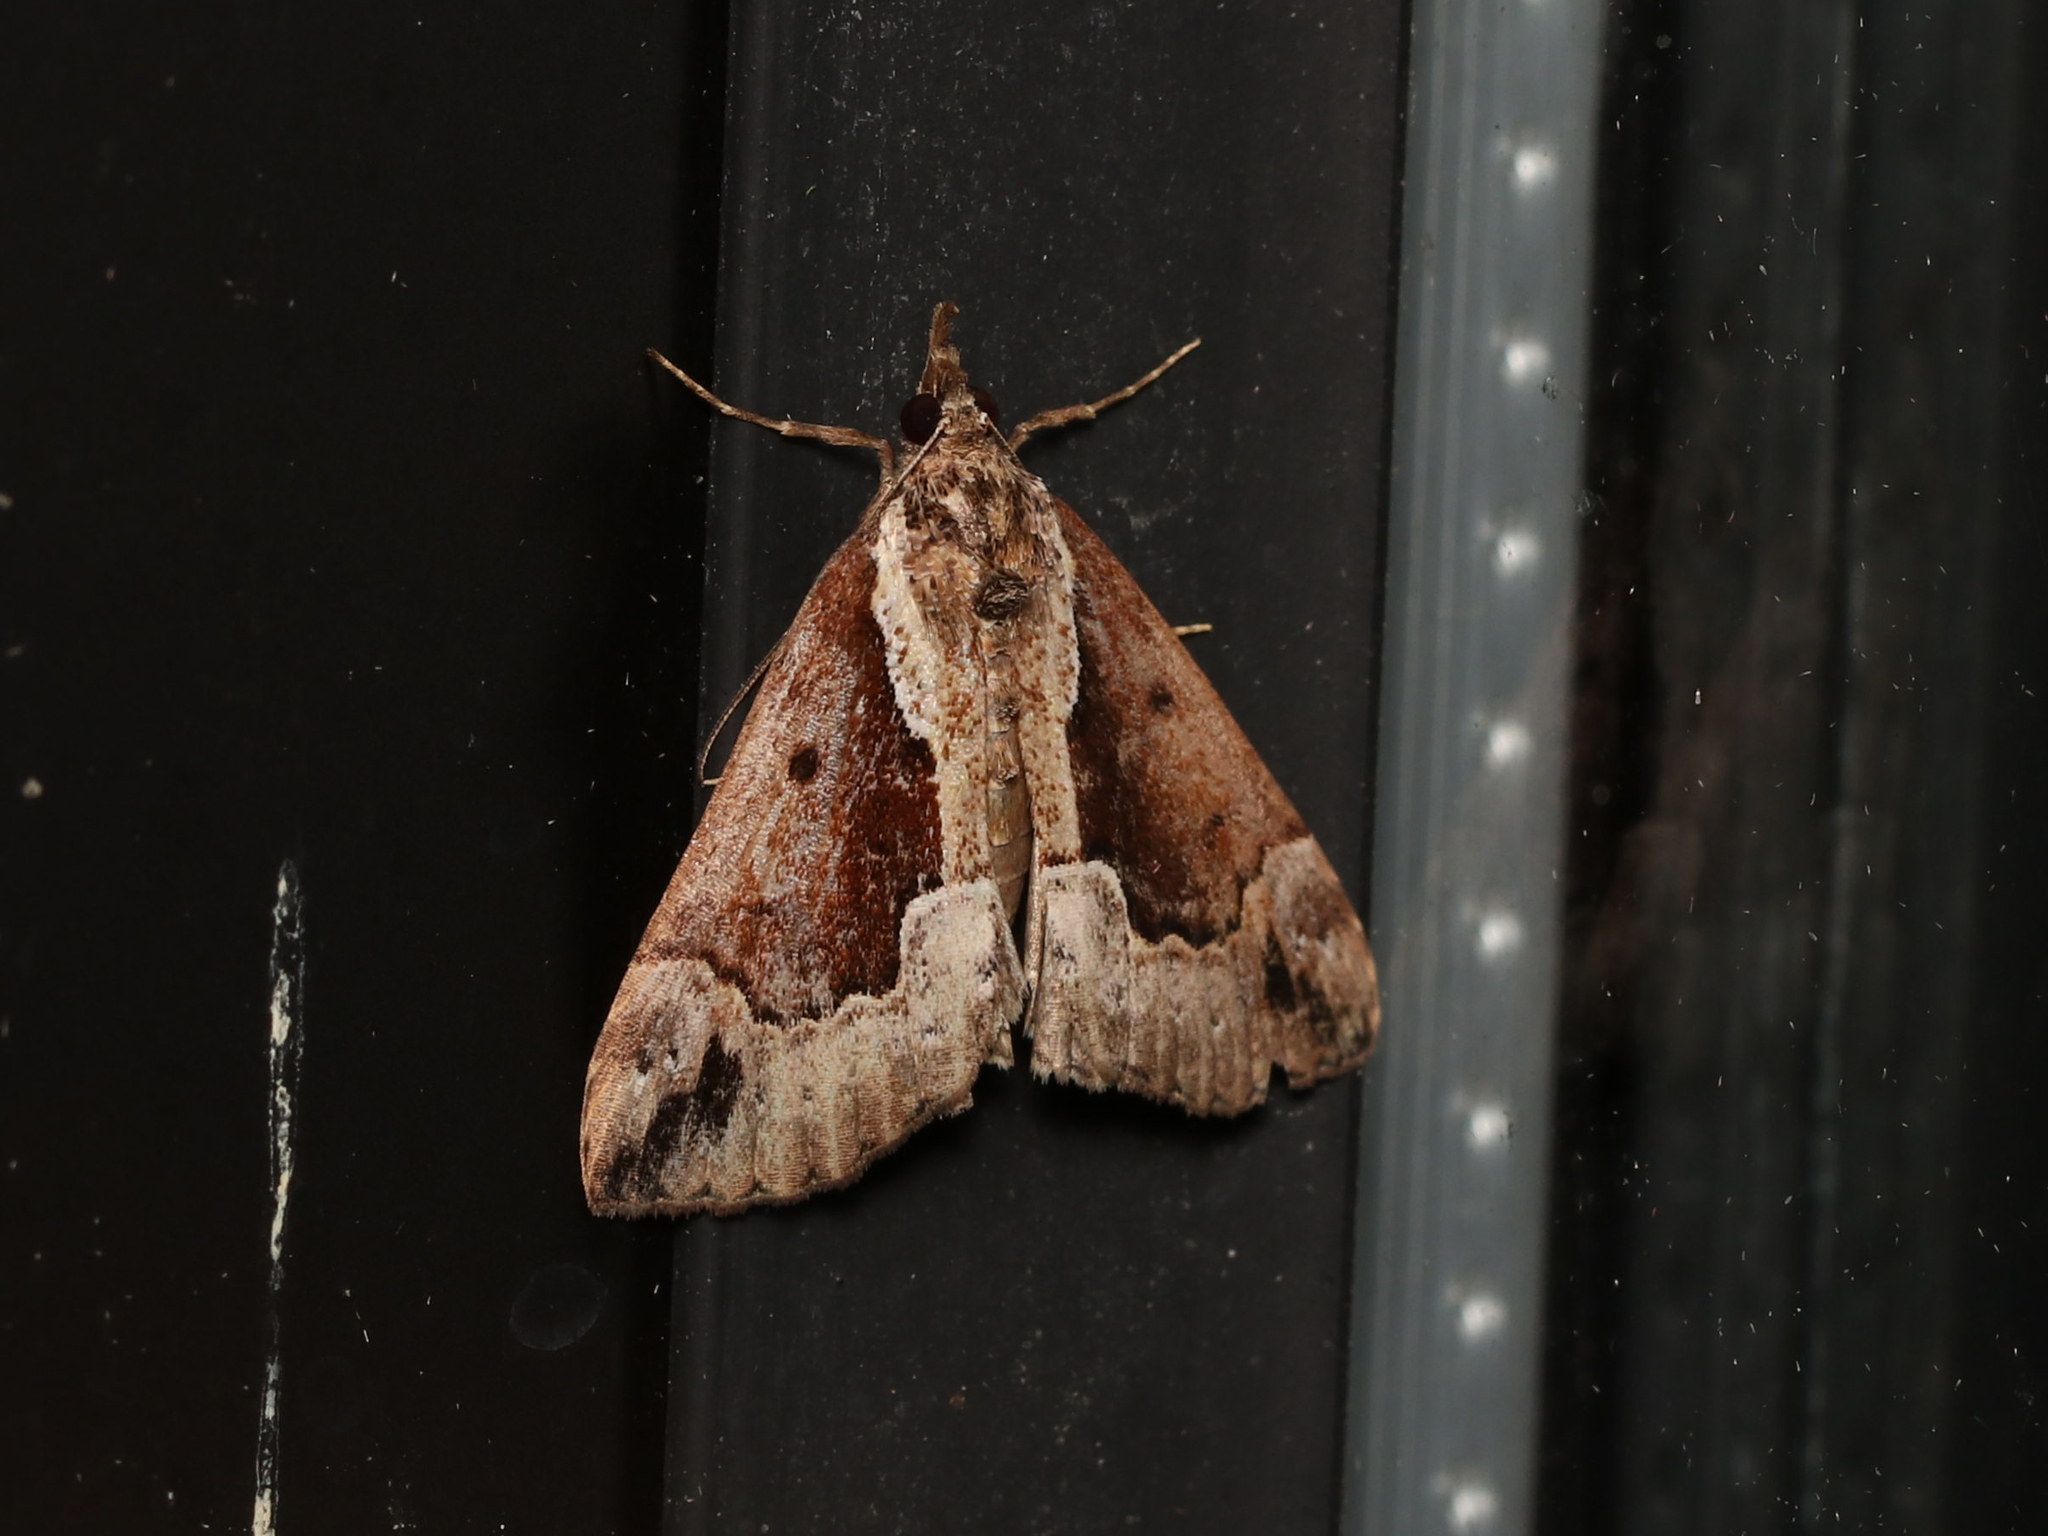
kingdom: Animalia
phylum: Arthropoda
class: Insecta
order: Lepidoptera
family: Erebidae
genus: Hypena
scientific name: Hypena baltimoralis
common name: Baltimore snout
